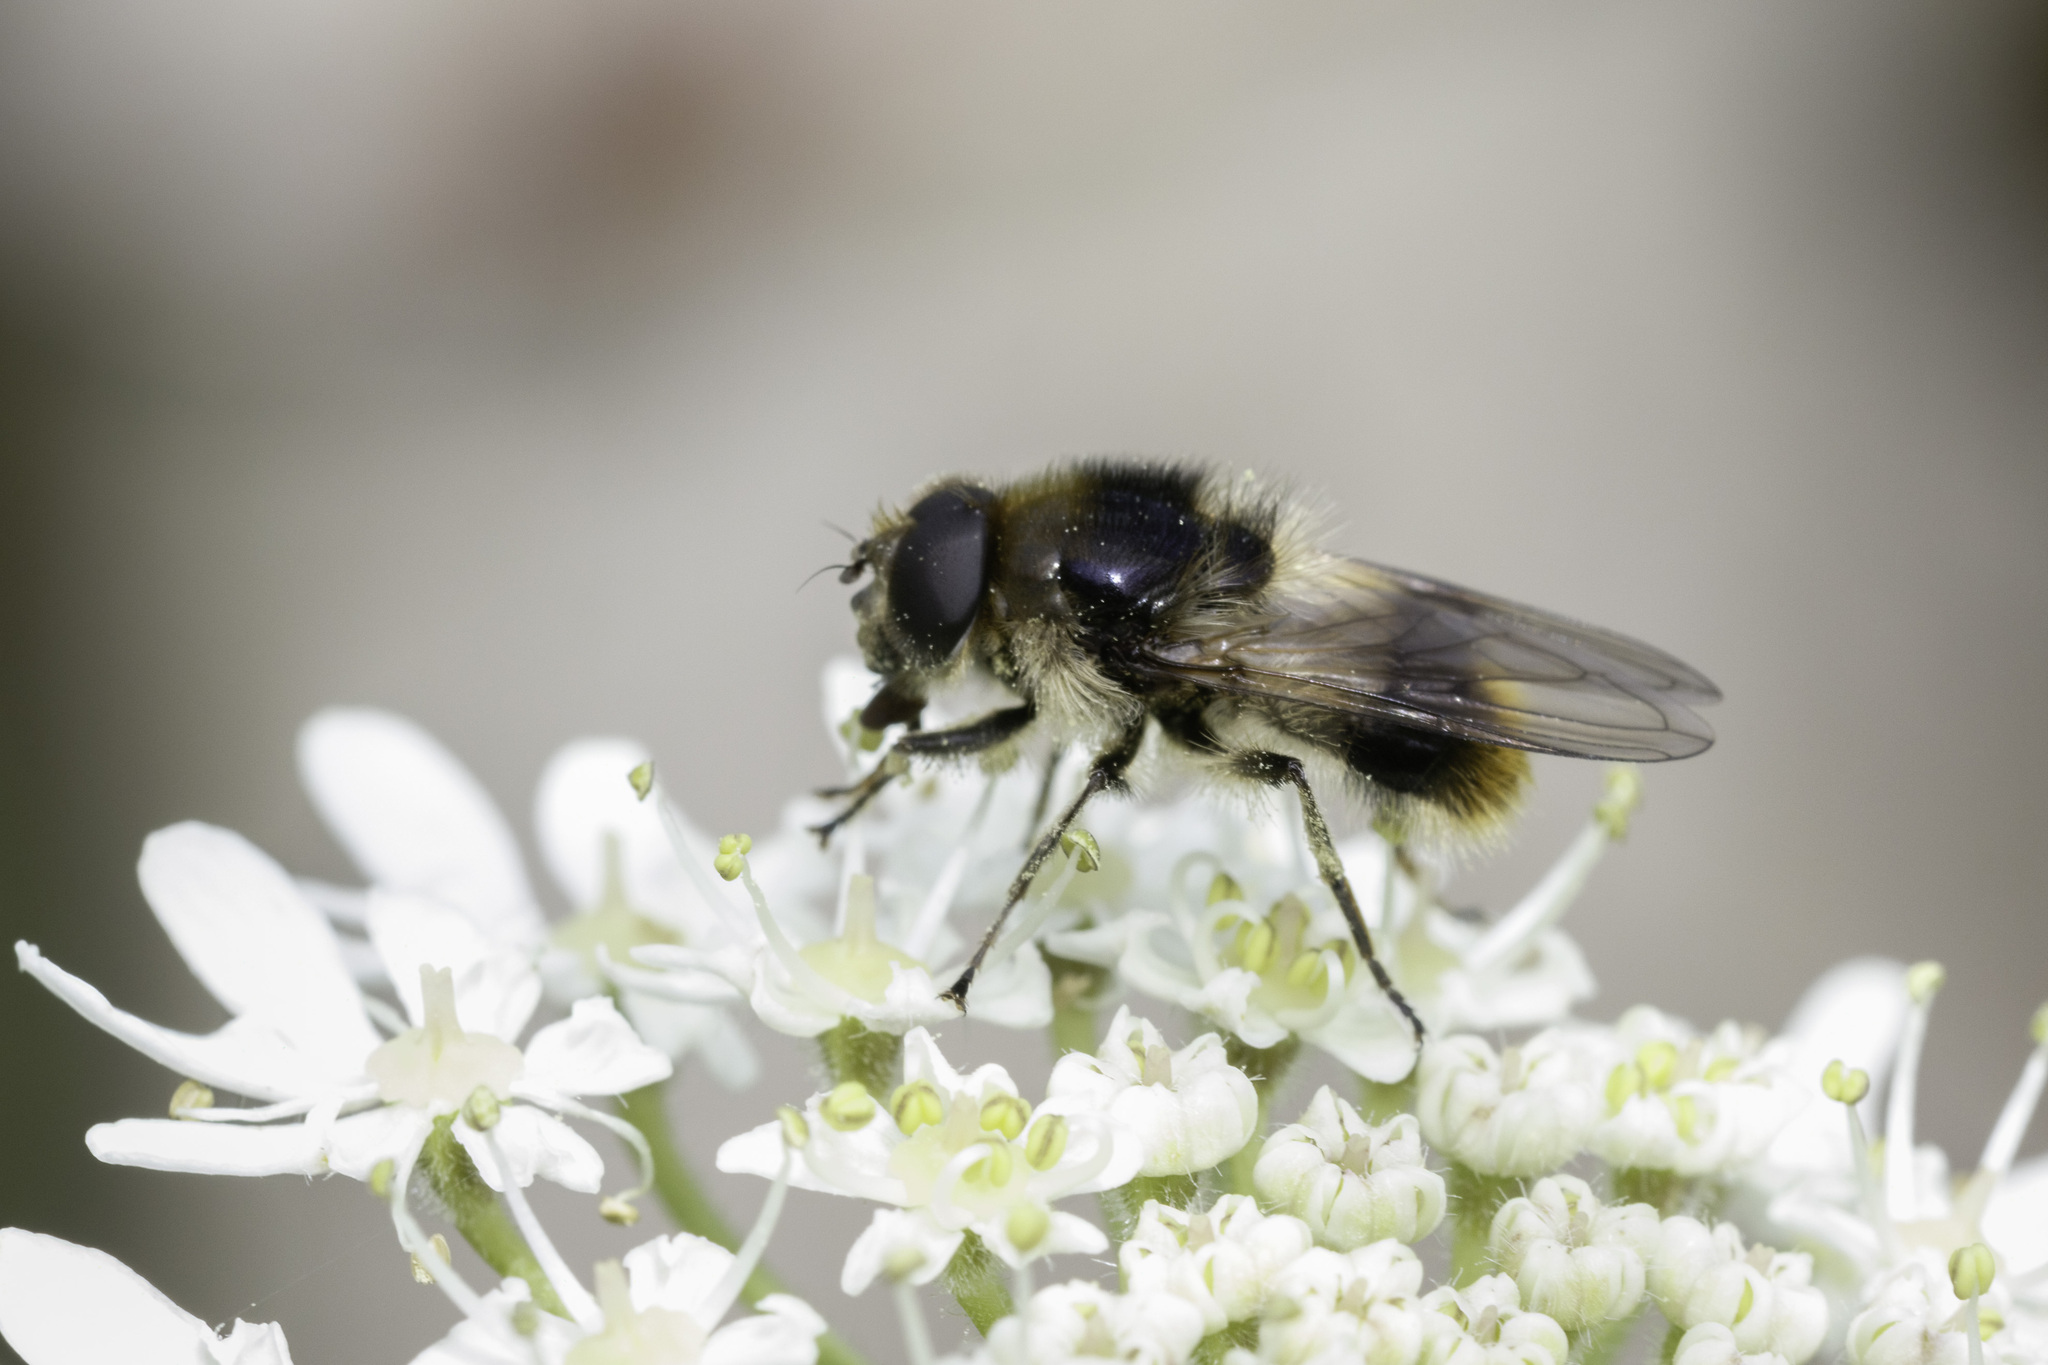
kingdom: Animalia
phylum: Arthropoda
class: Insecta
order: Diptera
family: Syrphidae
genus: Cheilosia
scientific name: Cheilosia illustrata
